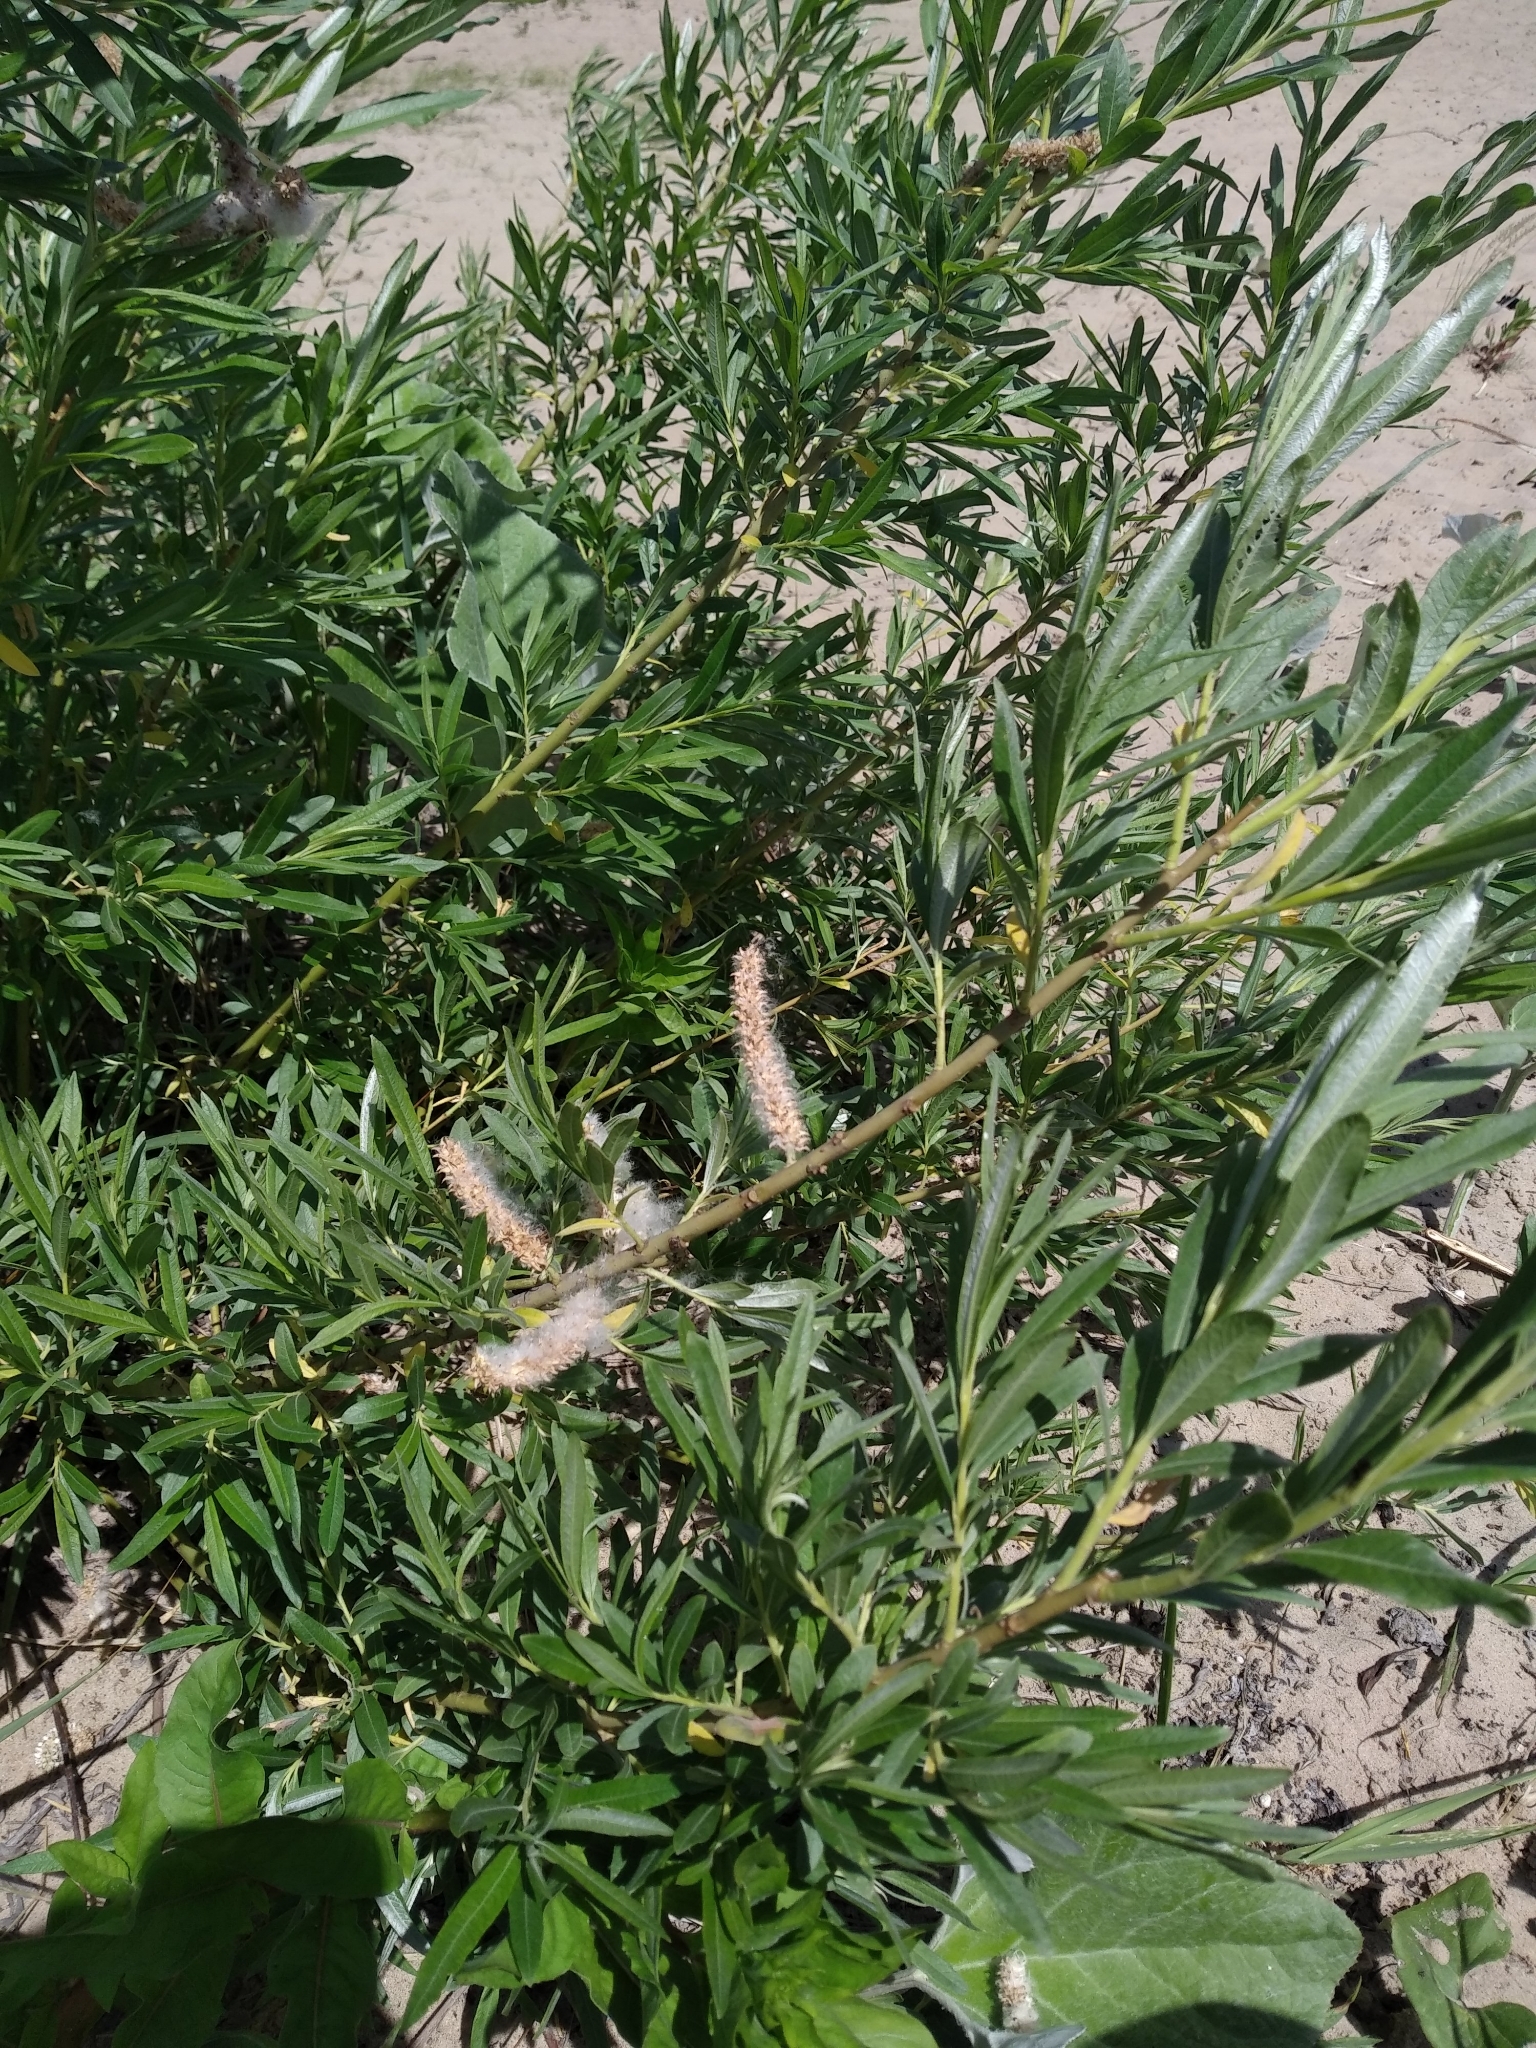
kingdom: Plantae
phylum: Tracheophyta
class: Magnoliopsida
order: Malpighiales
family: Salicaceae
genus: Salix
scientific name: Salix viminalis
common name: Osier
